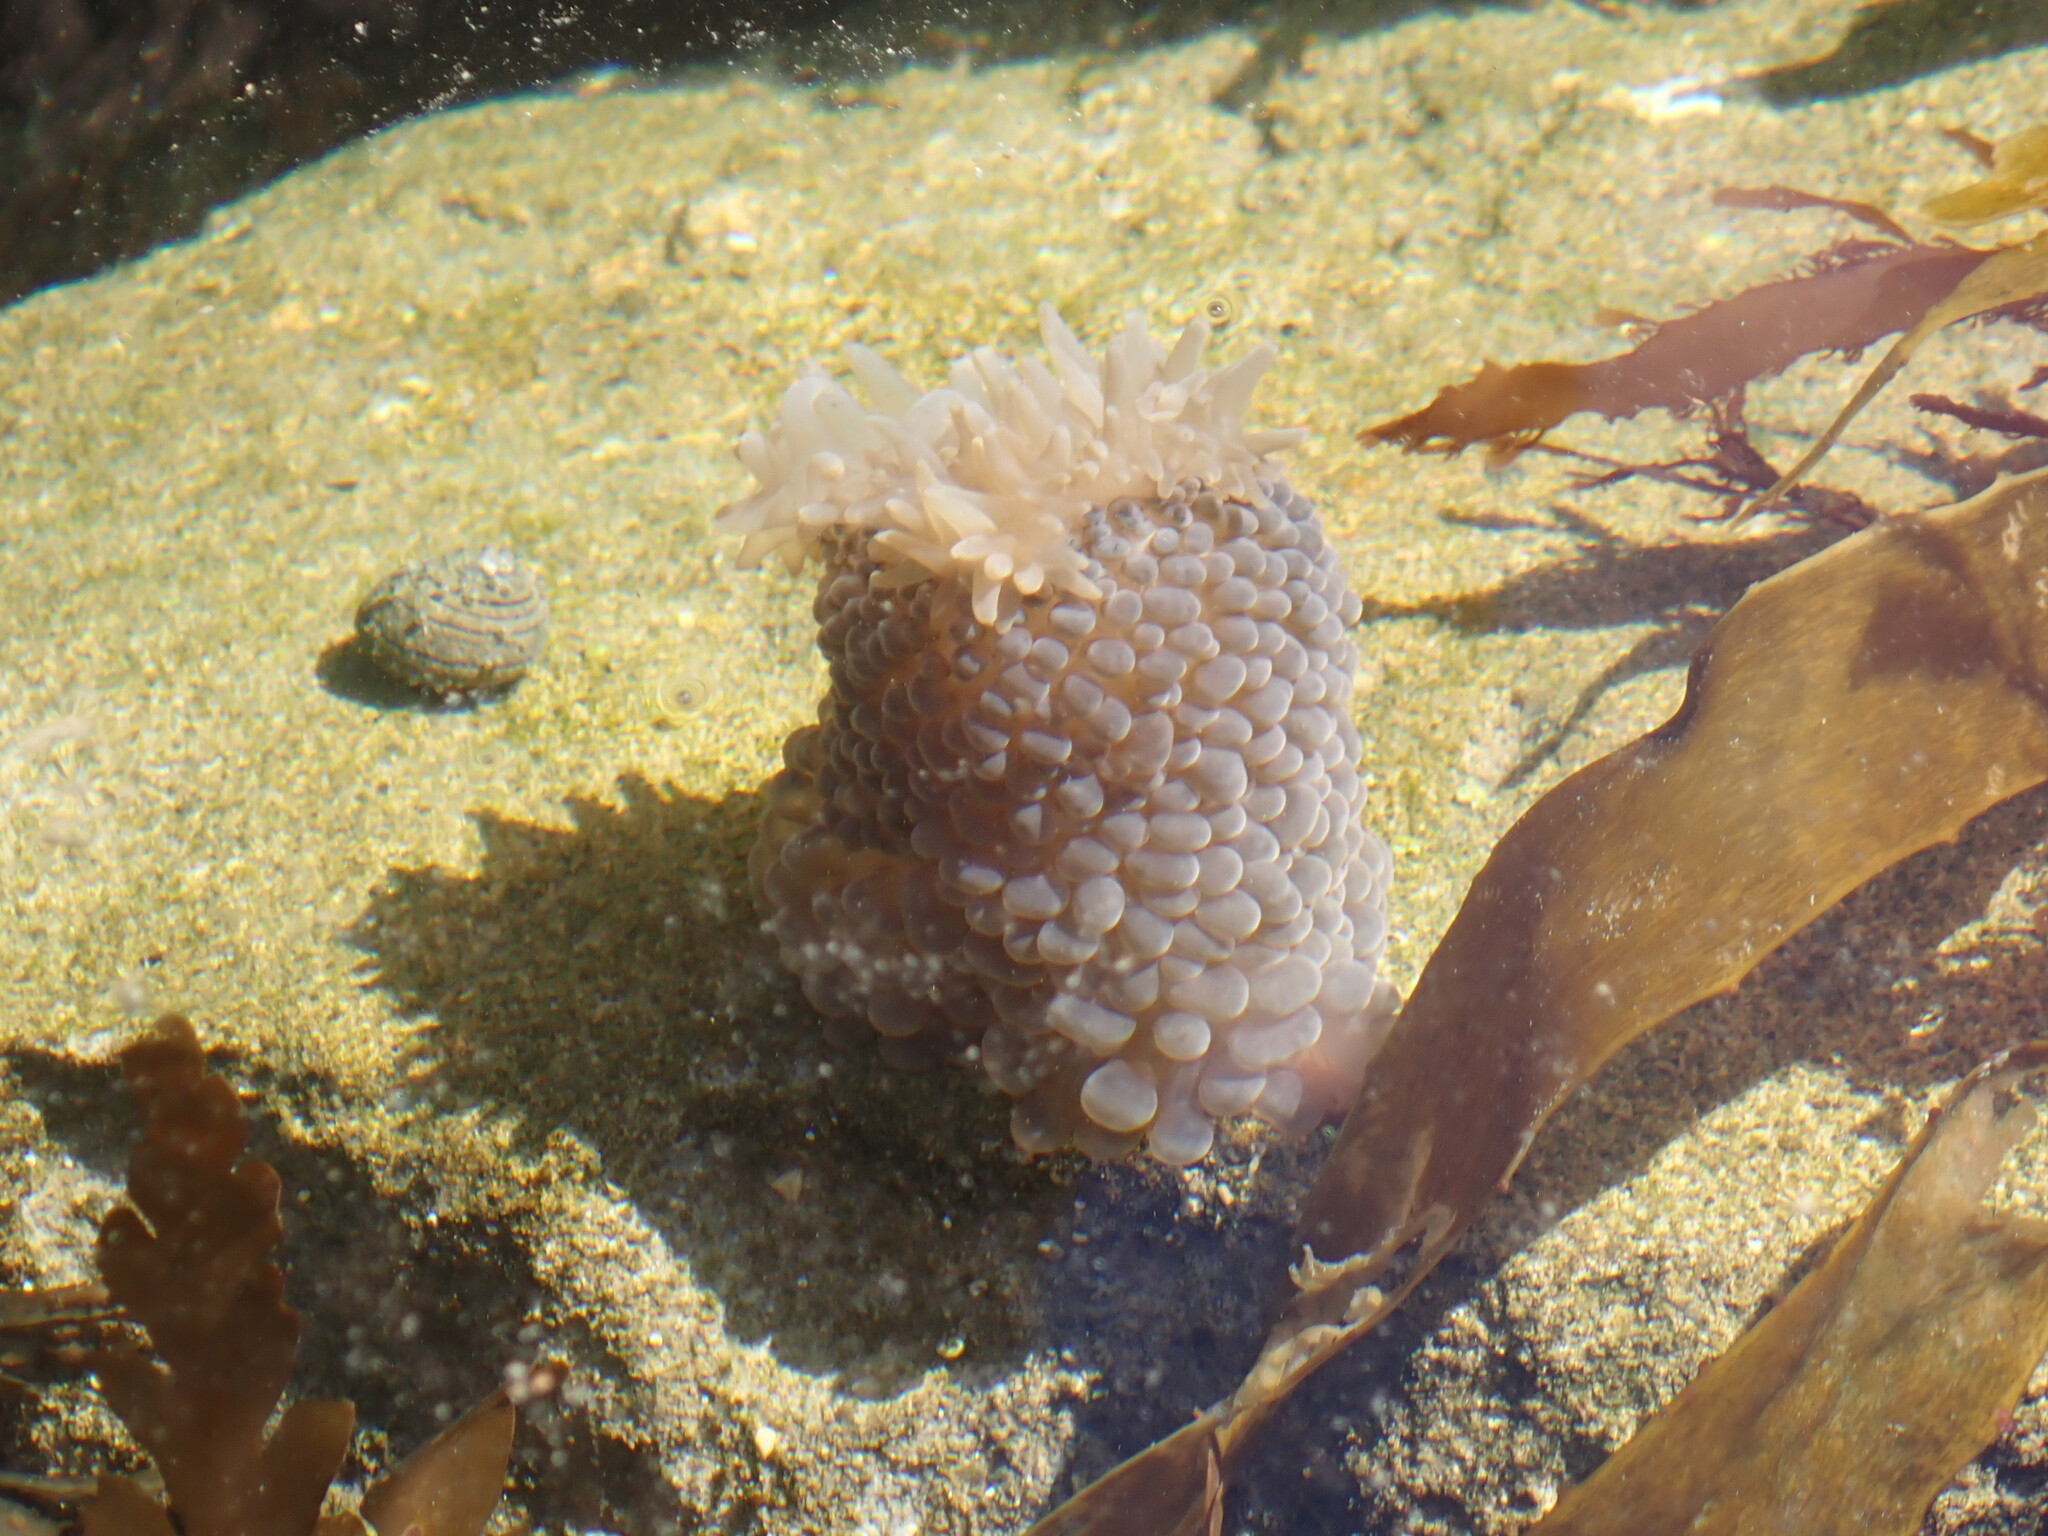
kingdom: Animalia
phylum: Cnidaria
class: Anthozoa
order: Actiniaria
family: Actiniidae
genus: Phlyctenactis
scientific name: Phlyctenactis tuberculosa
